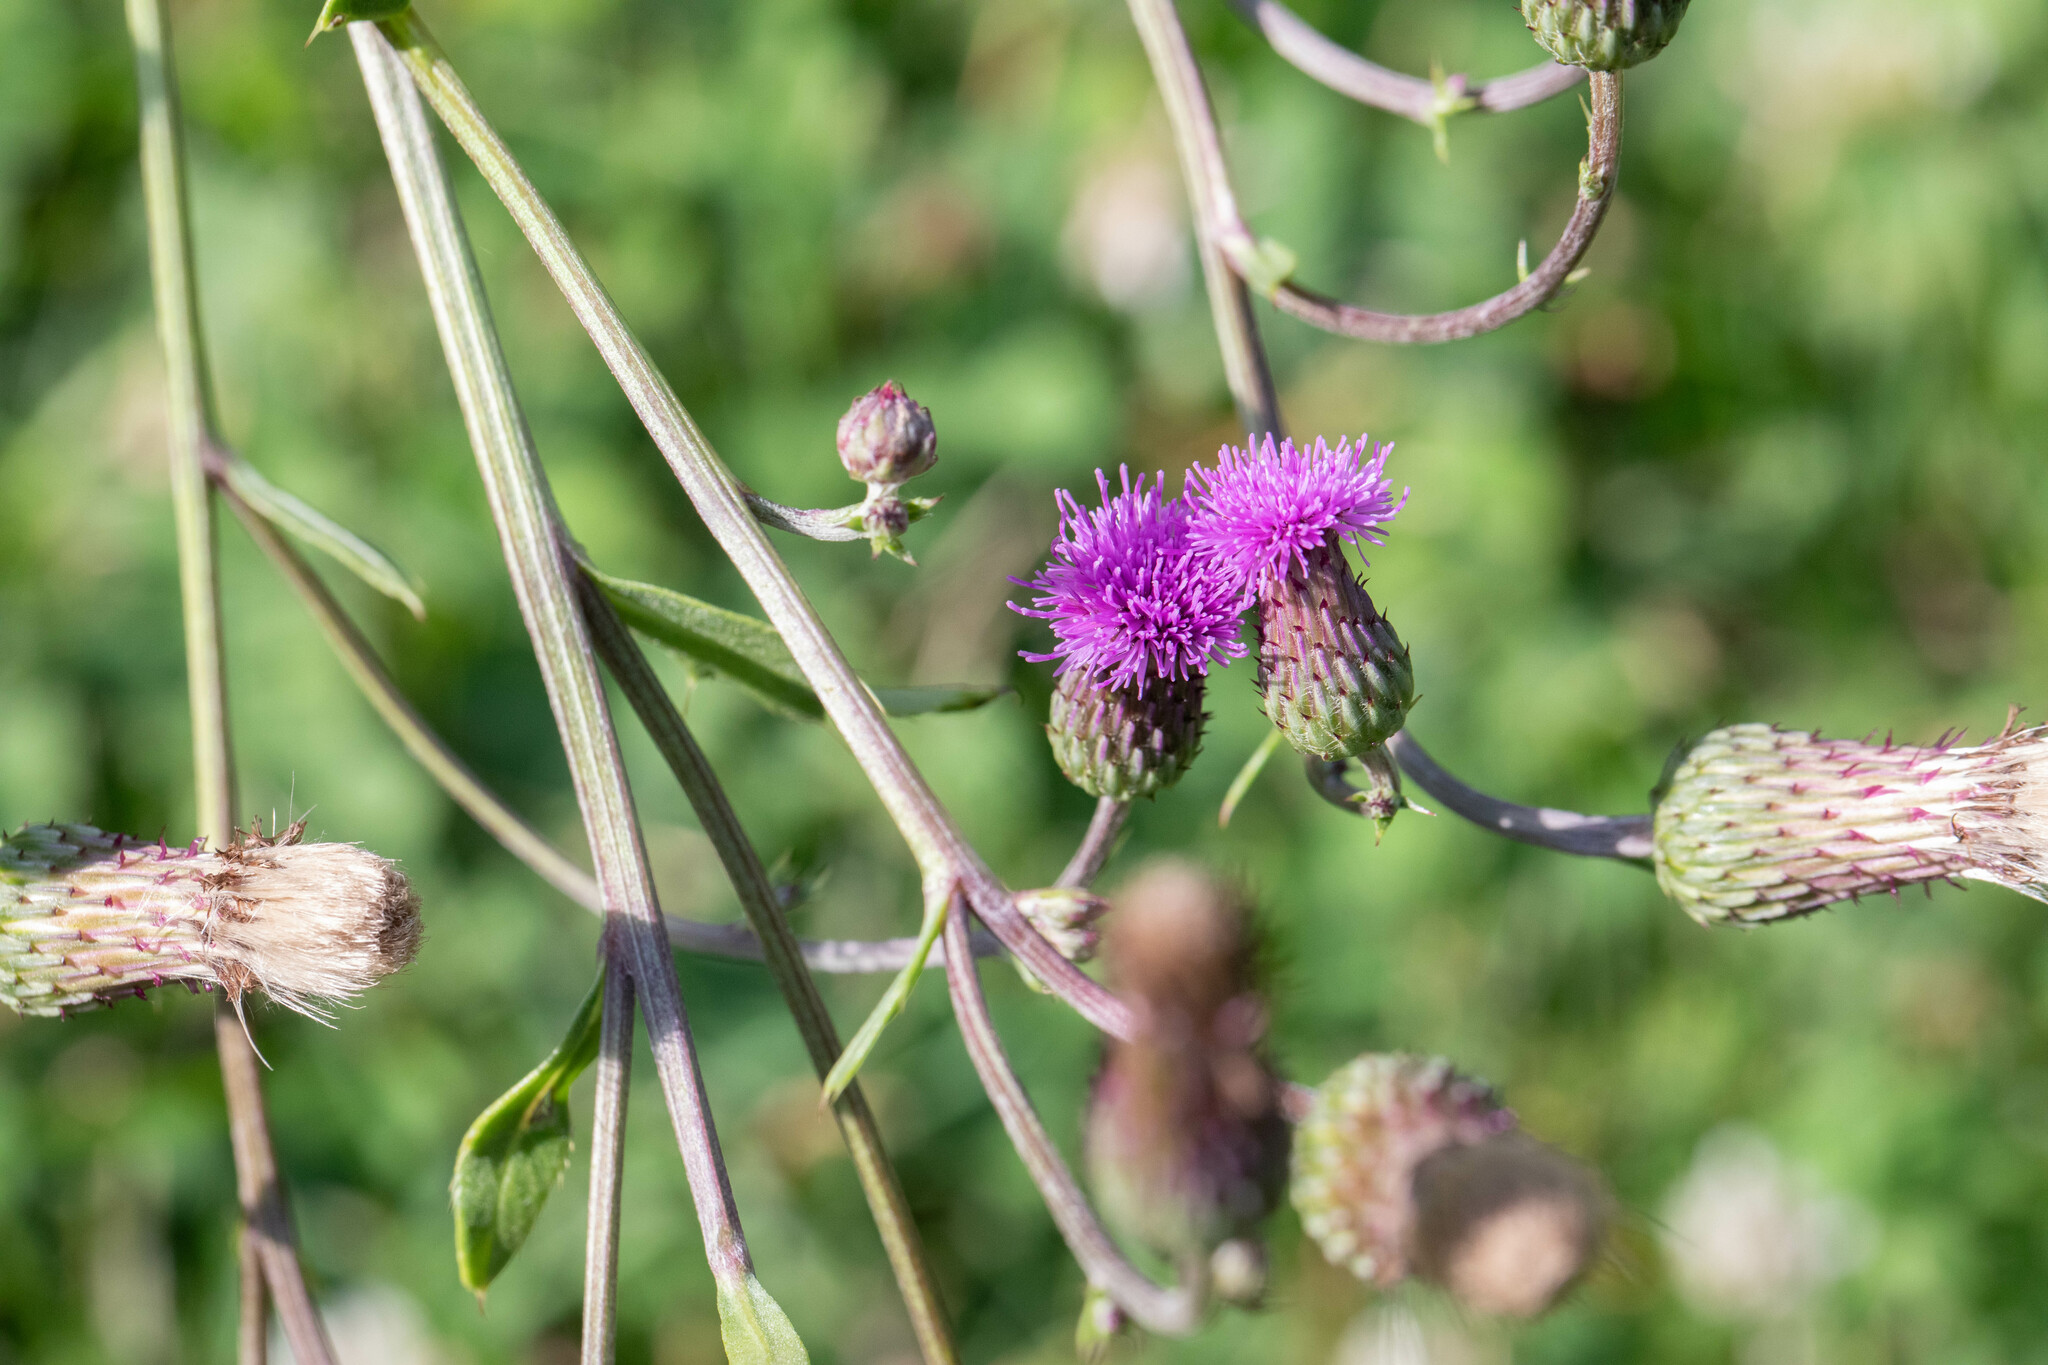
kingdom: Plantae
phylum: Tracheophyta
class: Magnoliopsida
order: Asterales
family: Asteraceae
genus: Cirsium
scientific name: Cirsium arvense
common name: Creeping thistle
